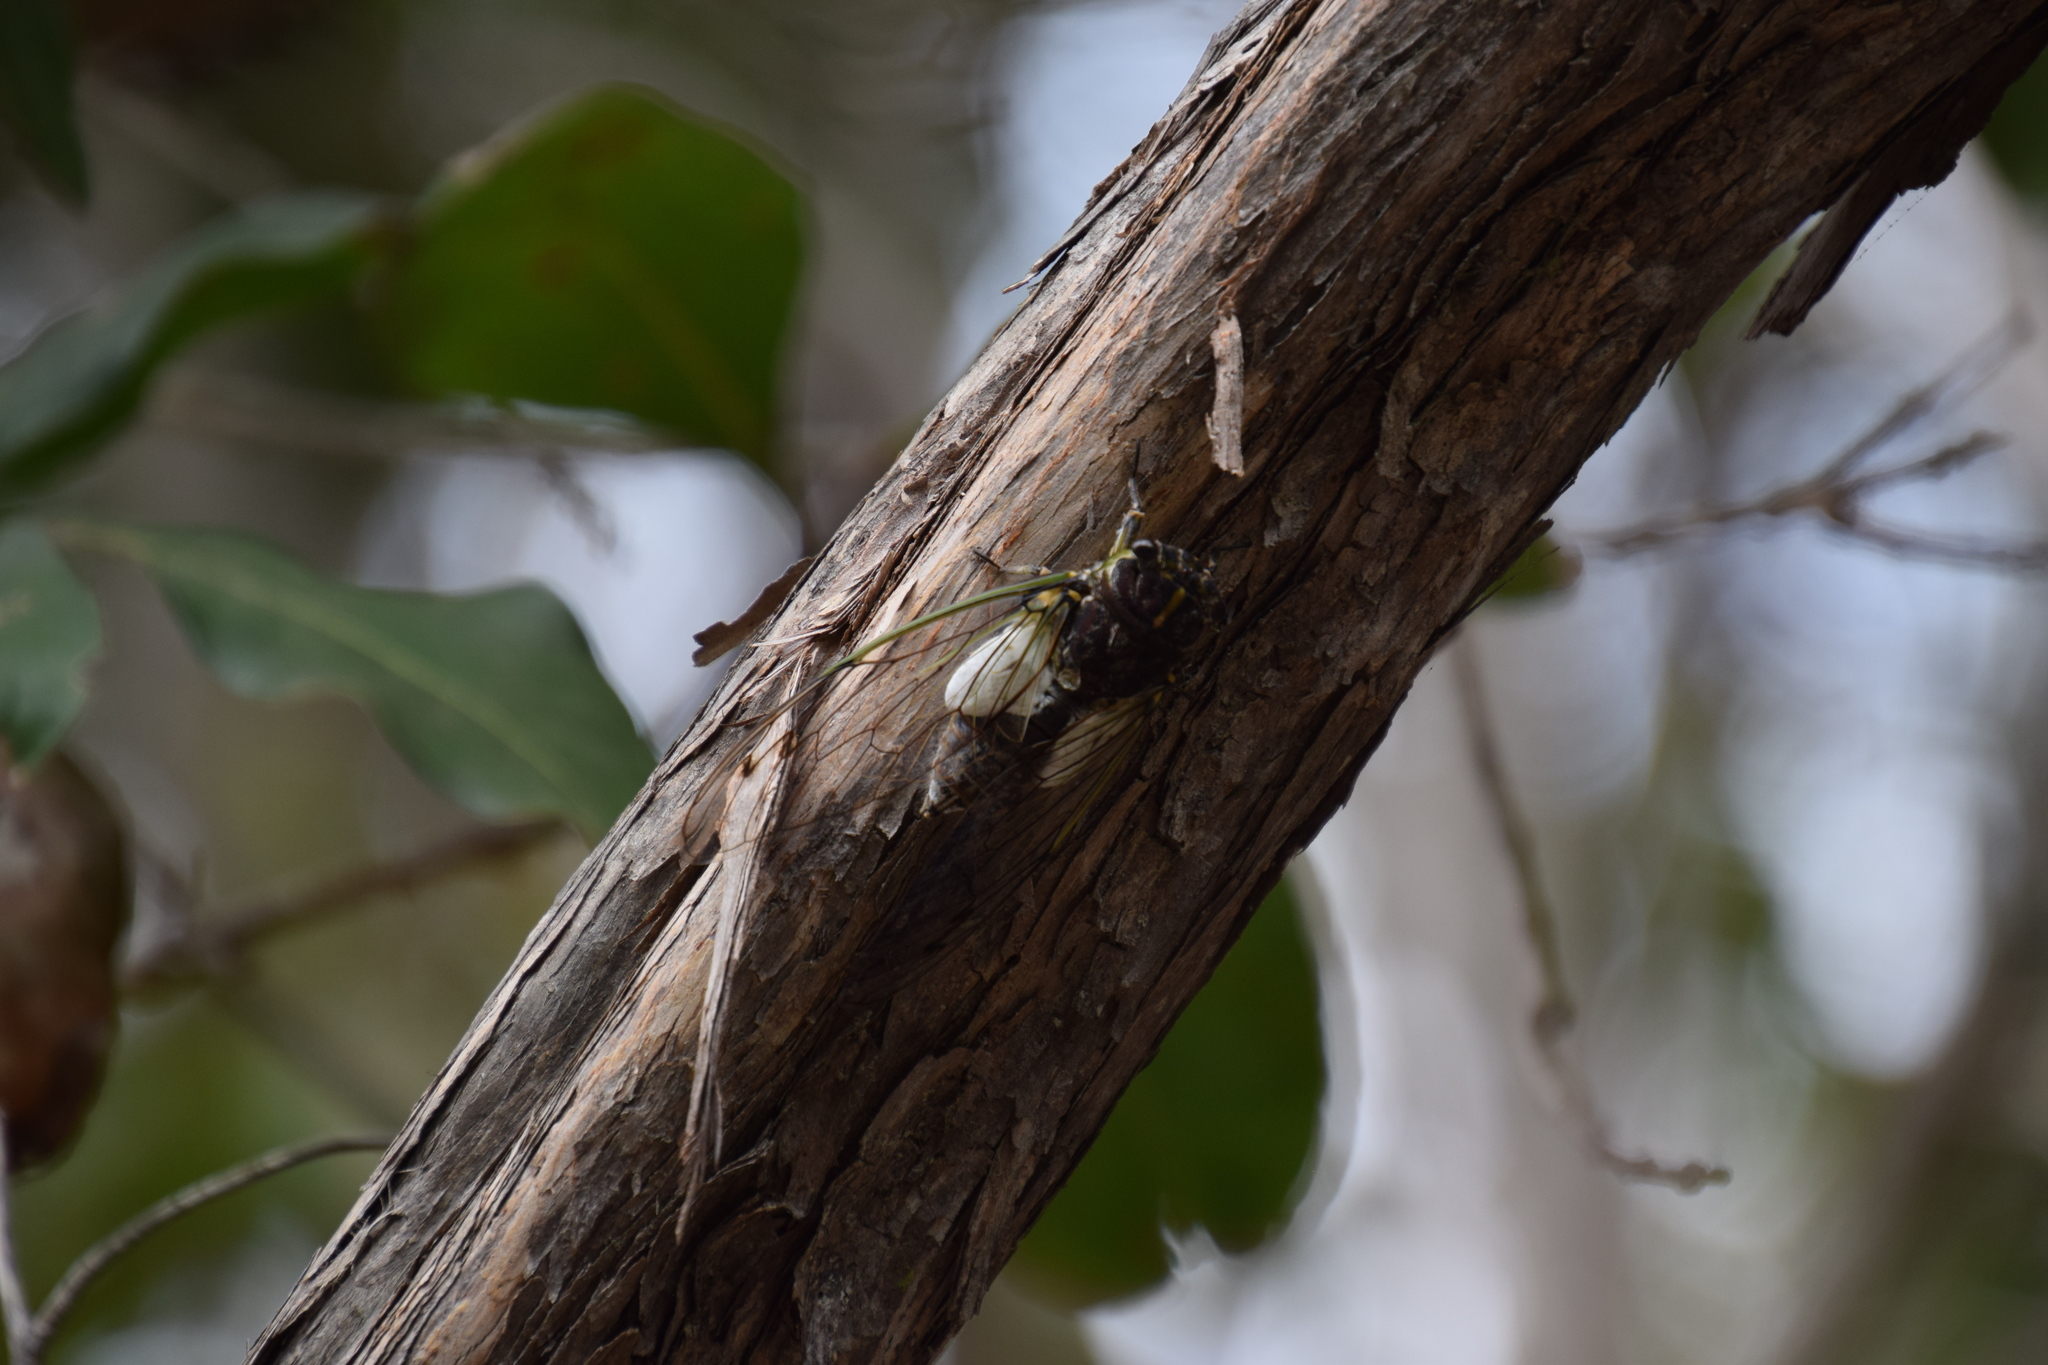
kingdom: Animalia
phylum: Arthropoda
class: Insecta
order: Hemiptera
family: Cicadidae
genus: Arunta
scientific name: Arunta perulata
